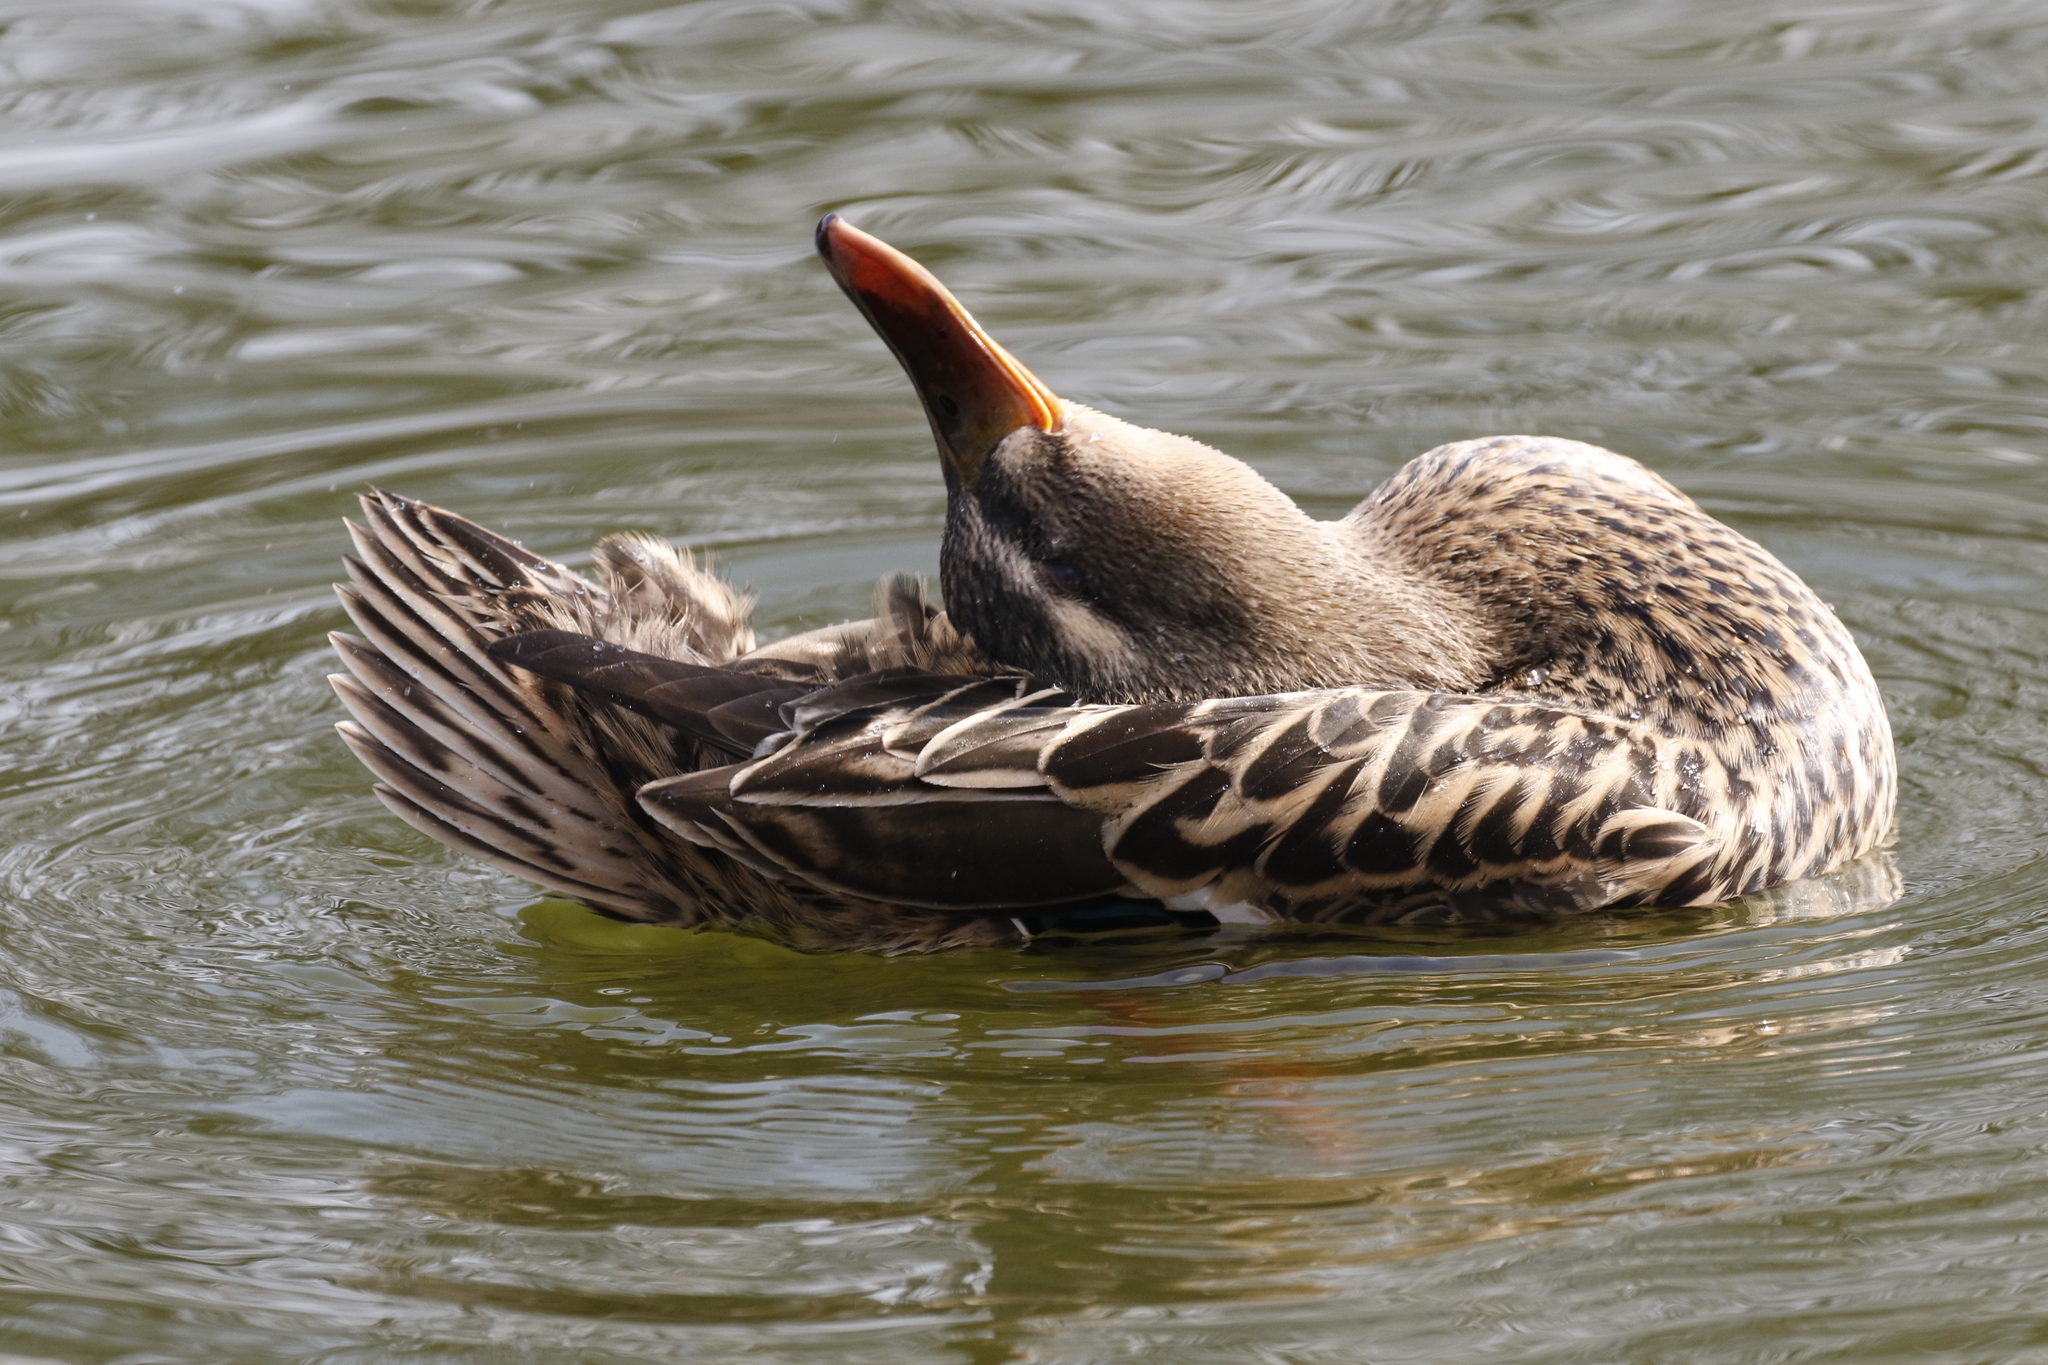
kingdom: Animalia
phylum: Chordata
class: Aves
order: Anseriformes
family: Anatidae
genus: Anas
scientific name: Anas platyrhynchos
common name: Mallard
